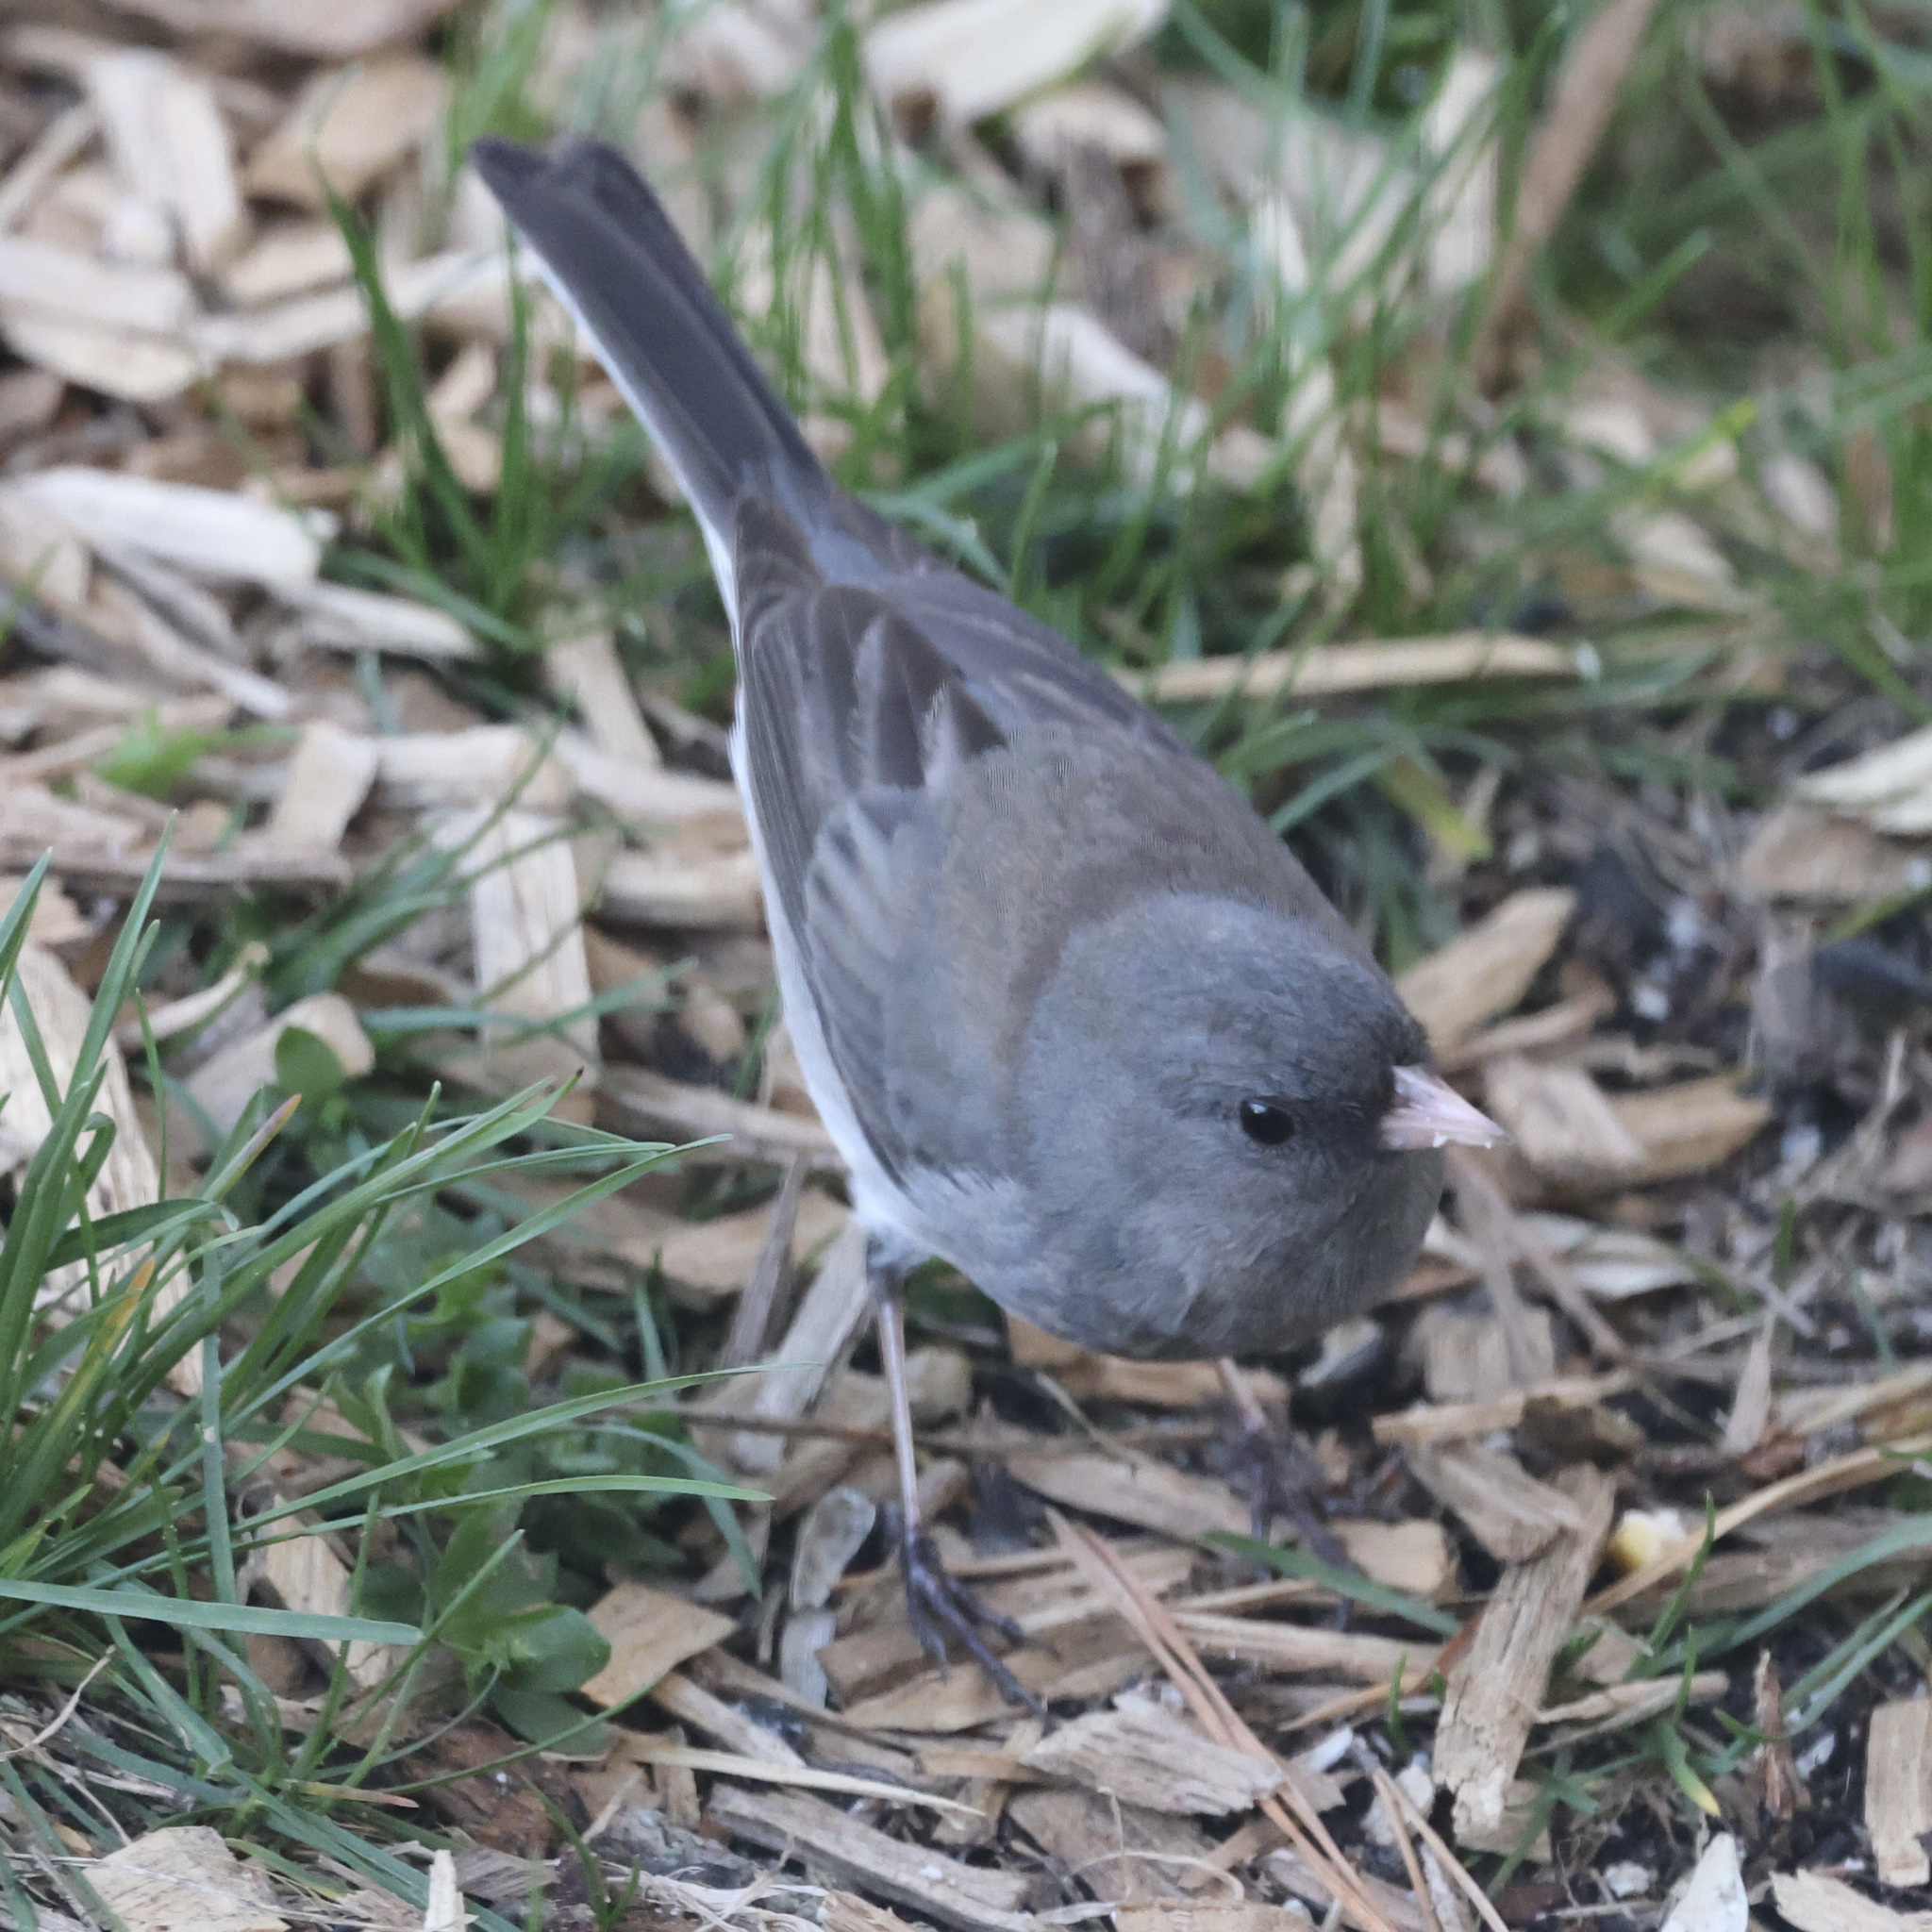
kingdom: Animalia
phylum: Chordata
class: Aves
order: Passeriformes
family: Passerellidae
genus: Junco
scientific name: Junco hyemalis
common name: Dark-eyed junco
